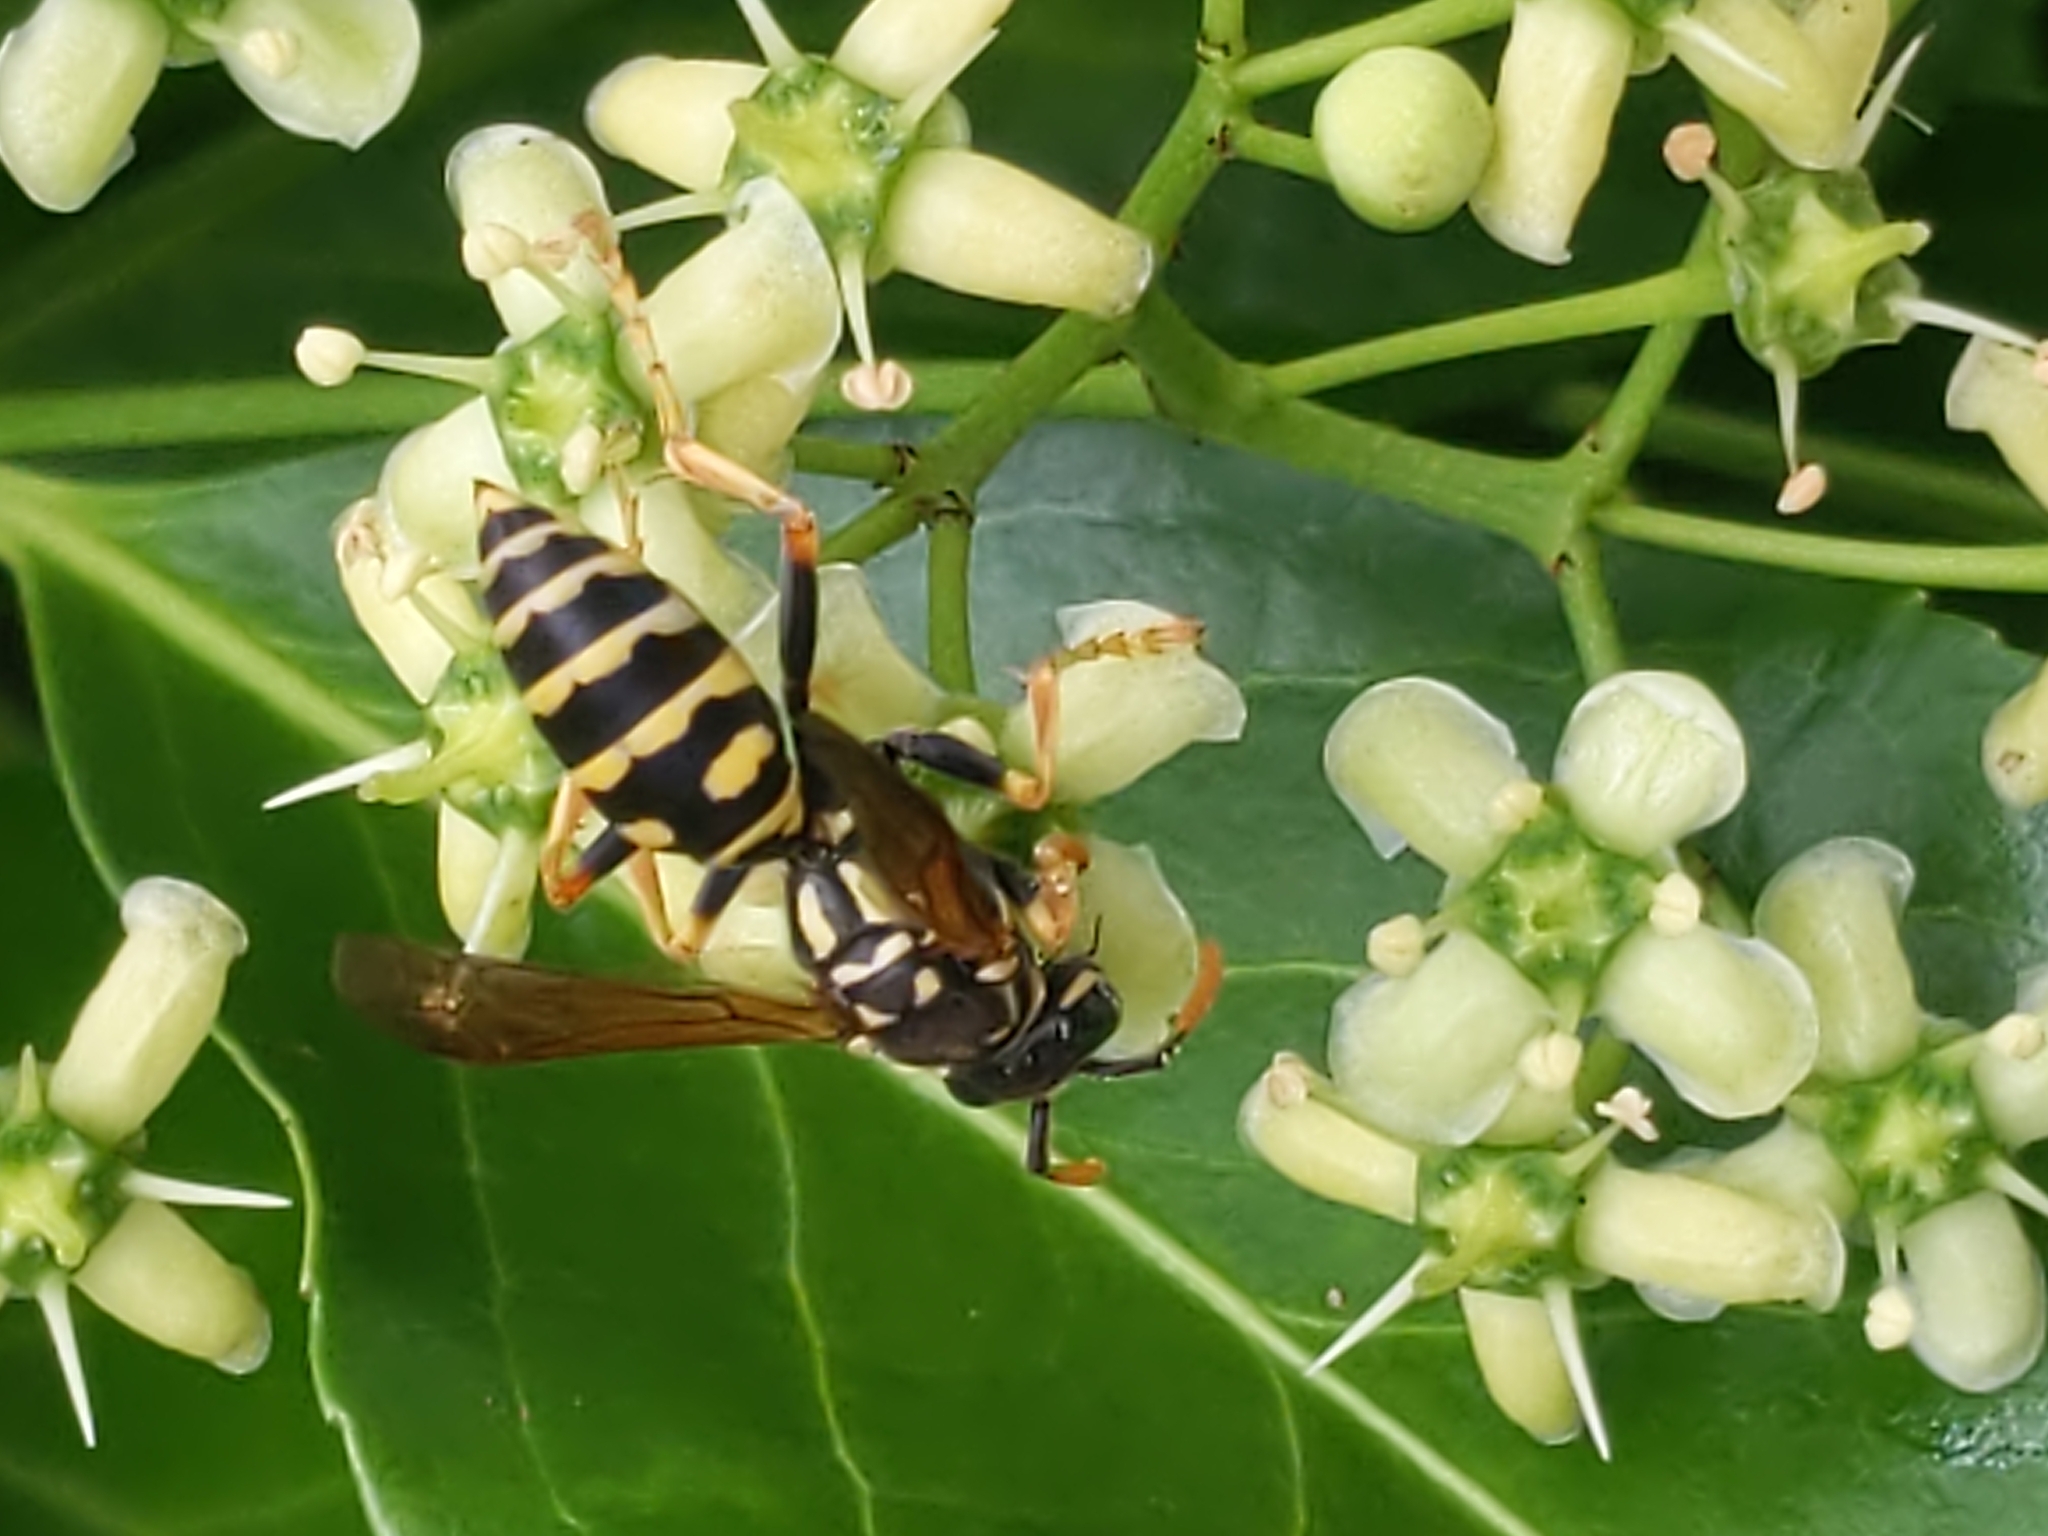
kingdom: Animalia
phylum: Arthropoda
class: Insecta
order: Hymenoptera
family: Eumenidae
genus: Polistes
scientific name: Polistes dominula
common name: Paper wasp
